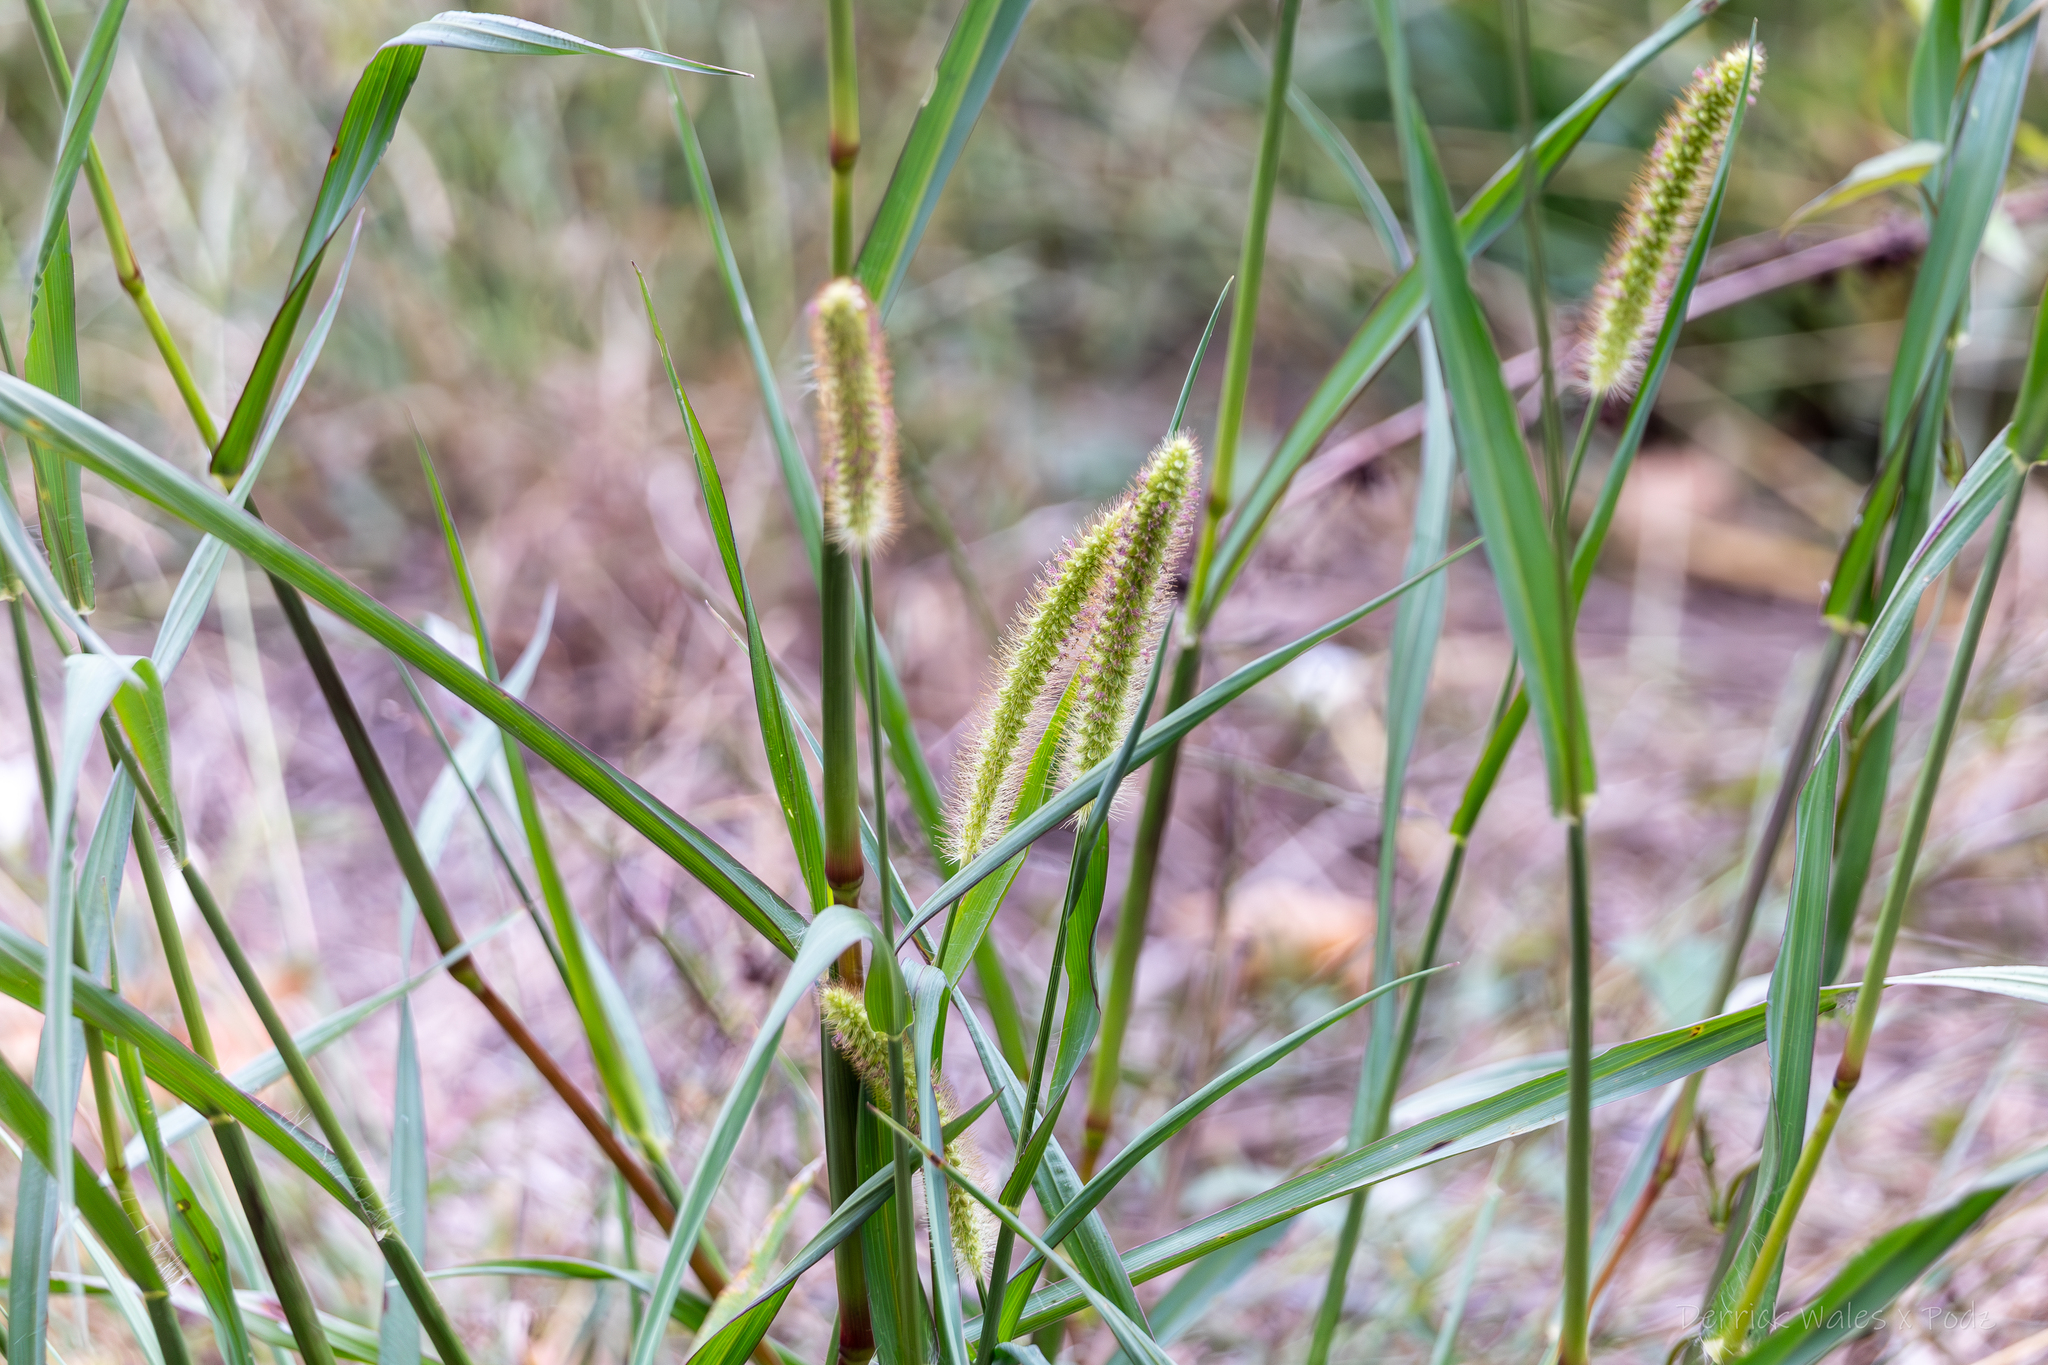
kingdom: Plantae
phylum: Tracheophyta
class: Liliopsida
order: Poales
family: Poaceae
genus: Setaria
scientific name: Setaria pumila
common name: Yellow bristle-grass
